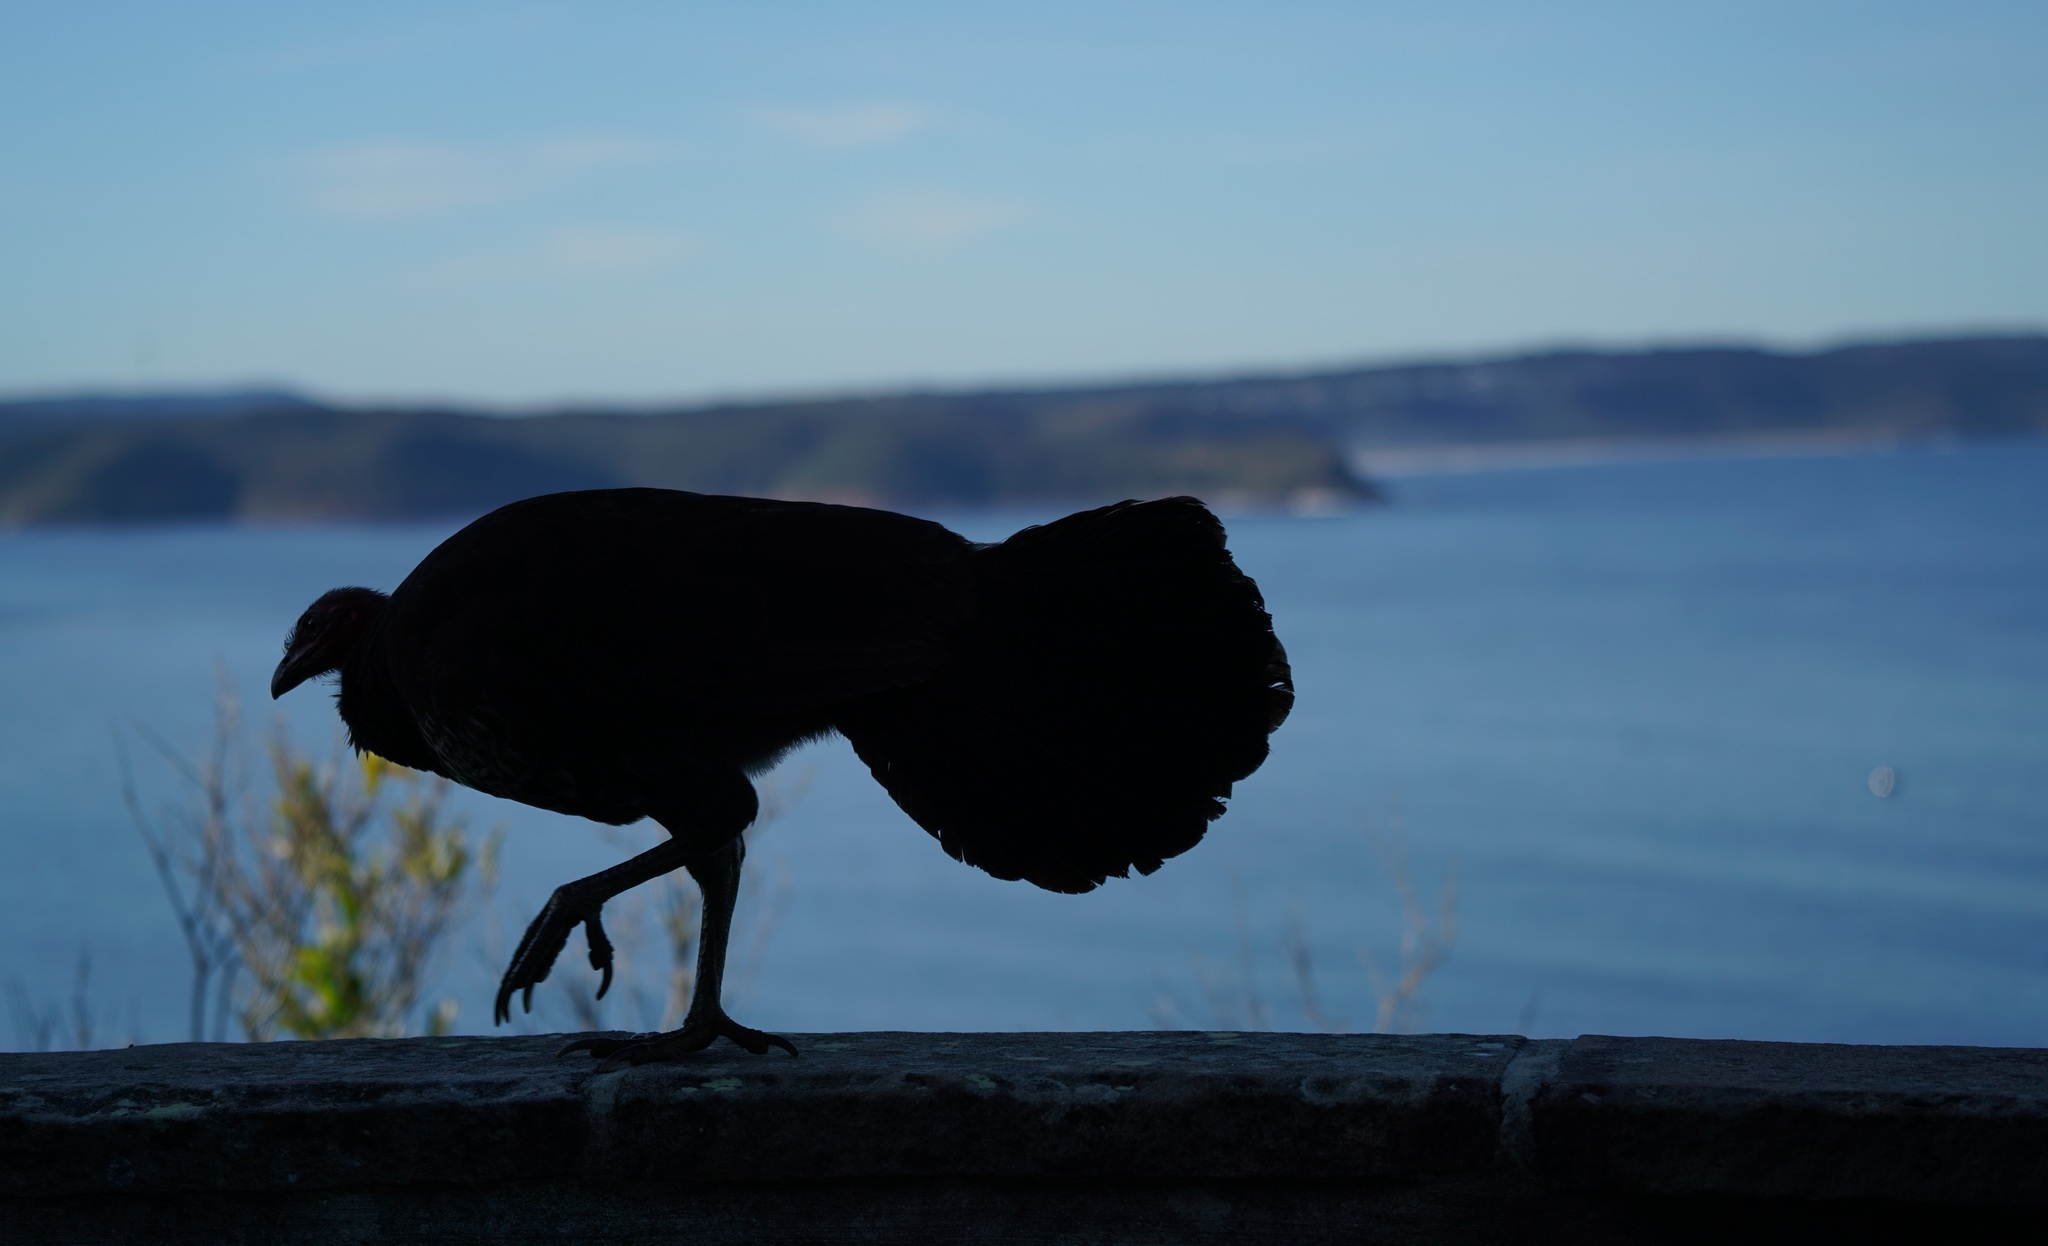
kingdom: Animalia
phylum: Chordata
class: Aves
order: Galliformes
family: Megapodiidae
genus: Alectura
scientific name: Alectura lathami
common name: Australian brushturkey
